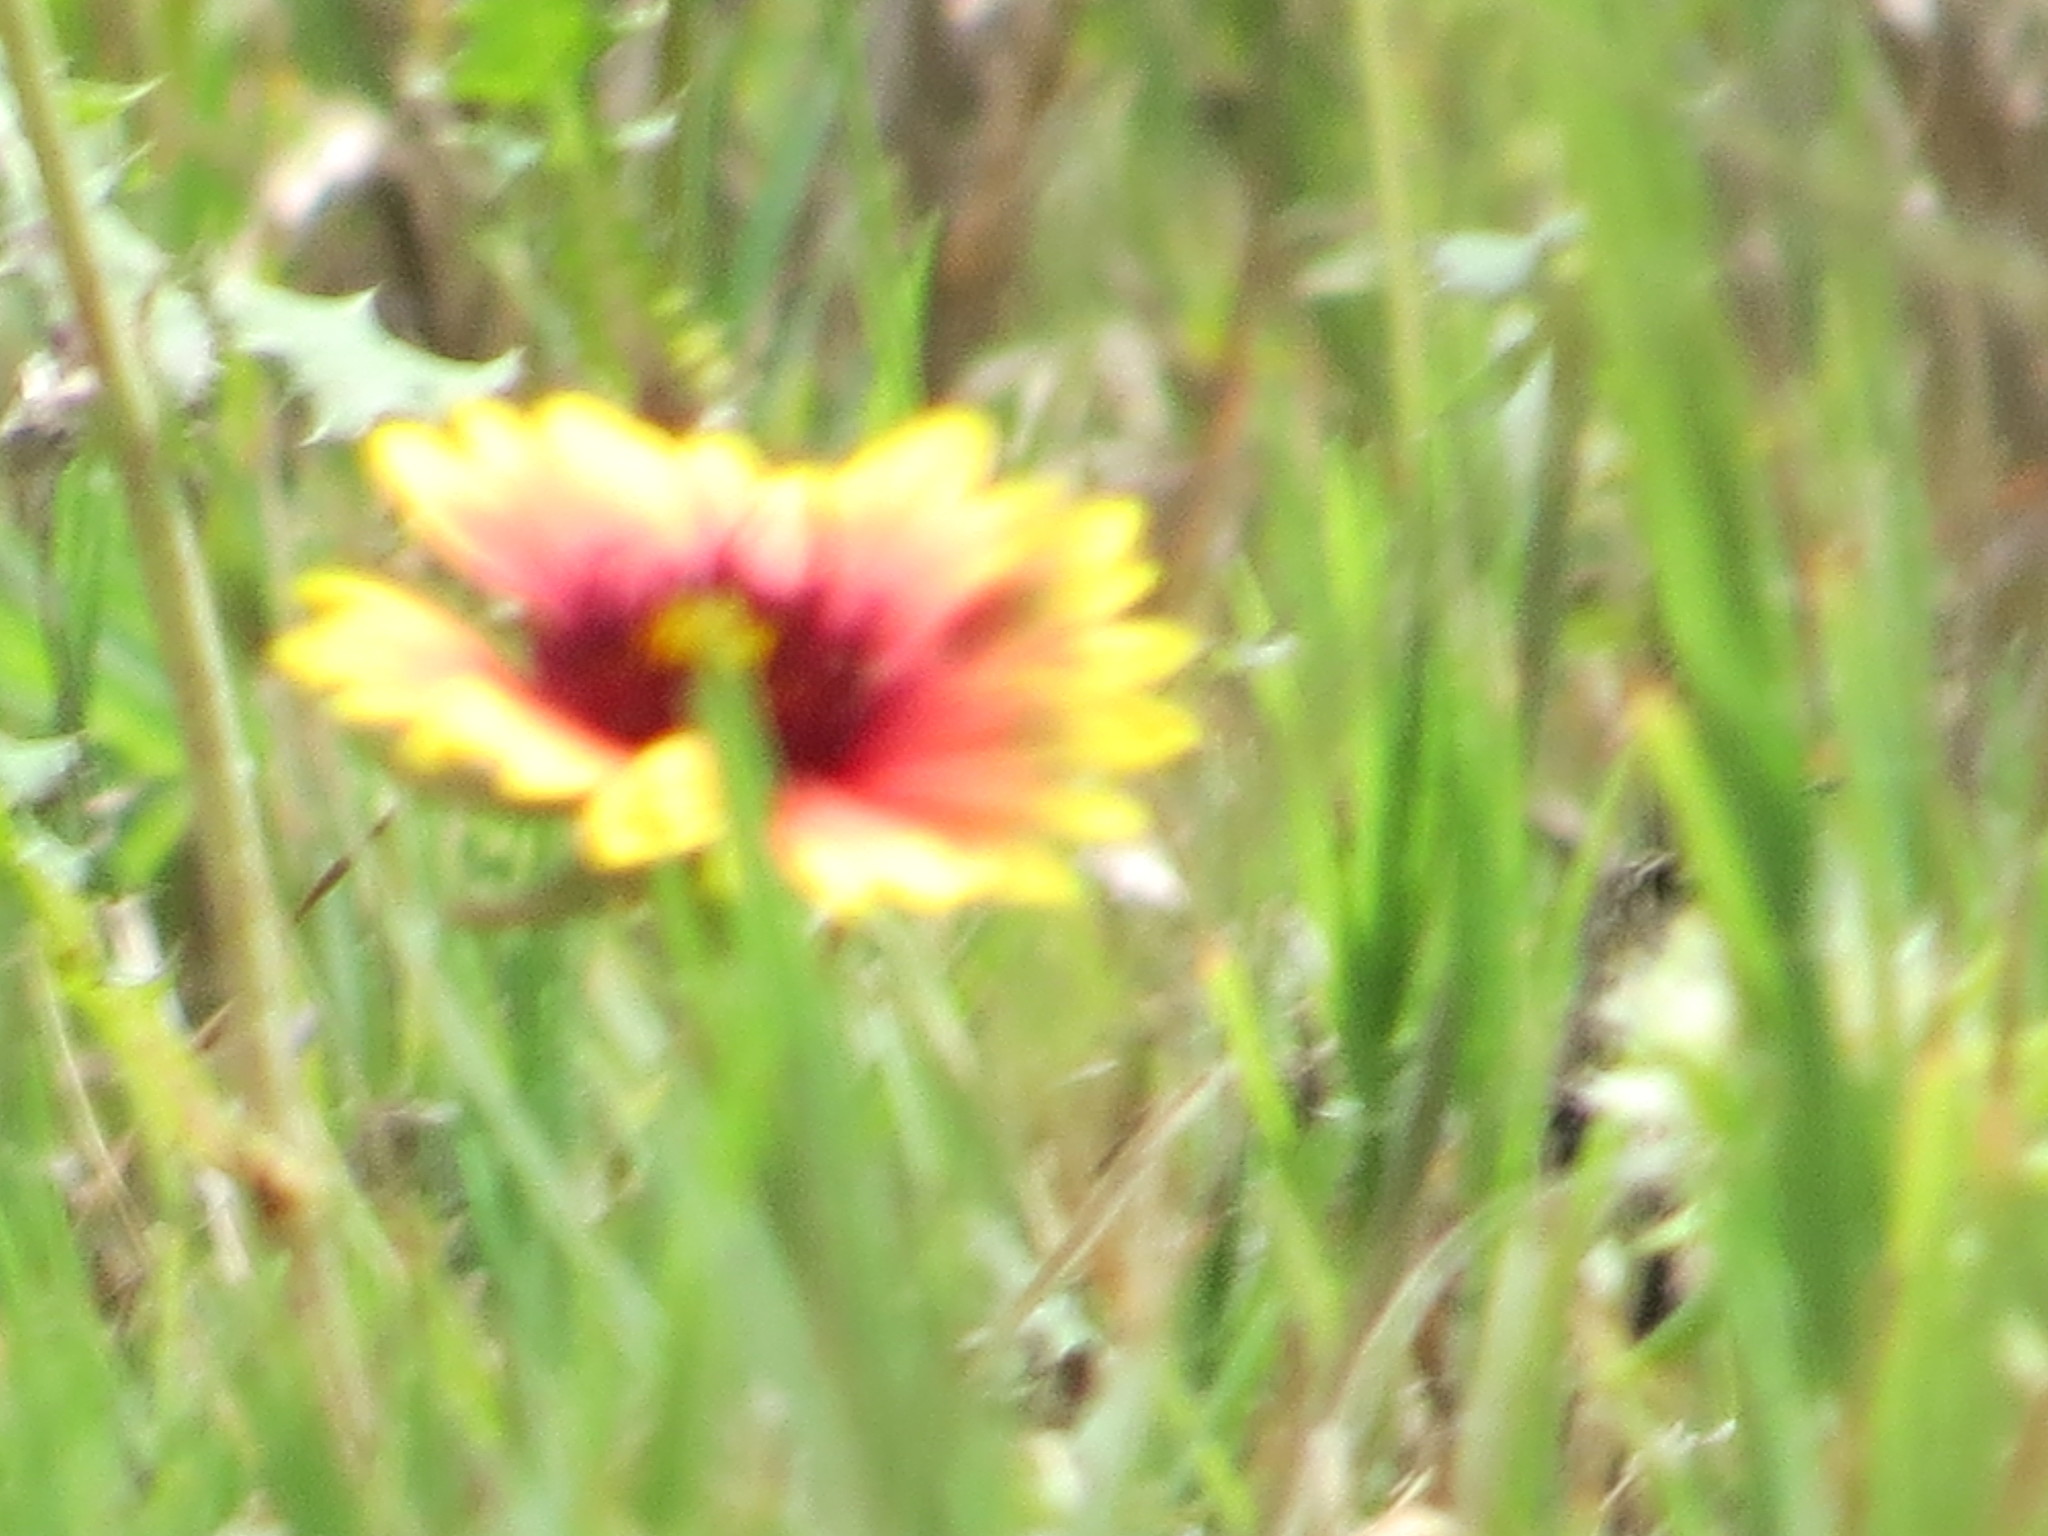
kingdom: Plantae
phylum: Tracheophyta
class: Magnoliopsida
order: Asterales
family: Asteraceae
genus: Gaillardia
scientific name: Gaillardia pulchella
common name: Firewheel
